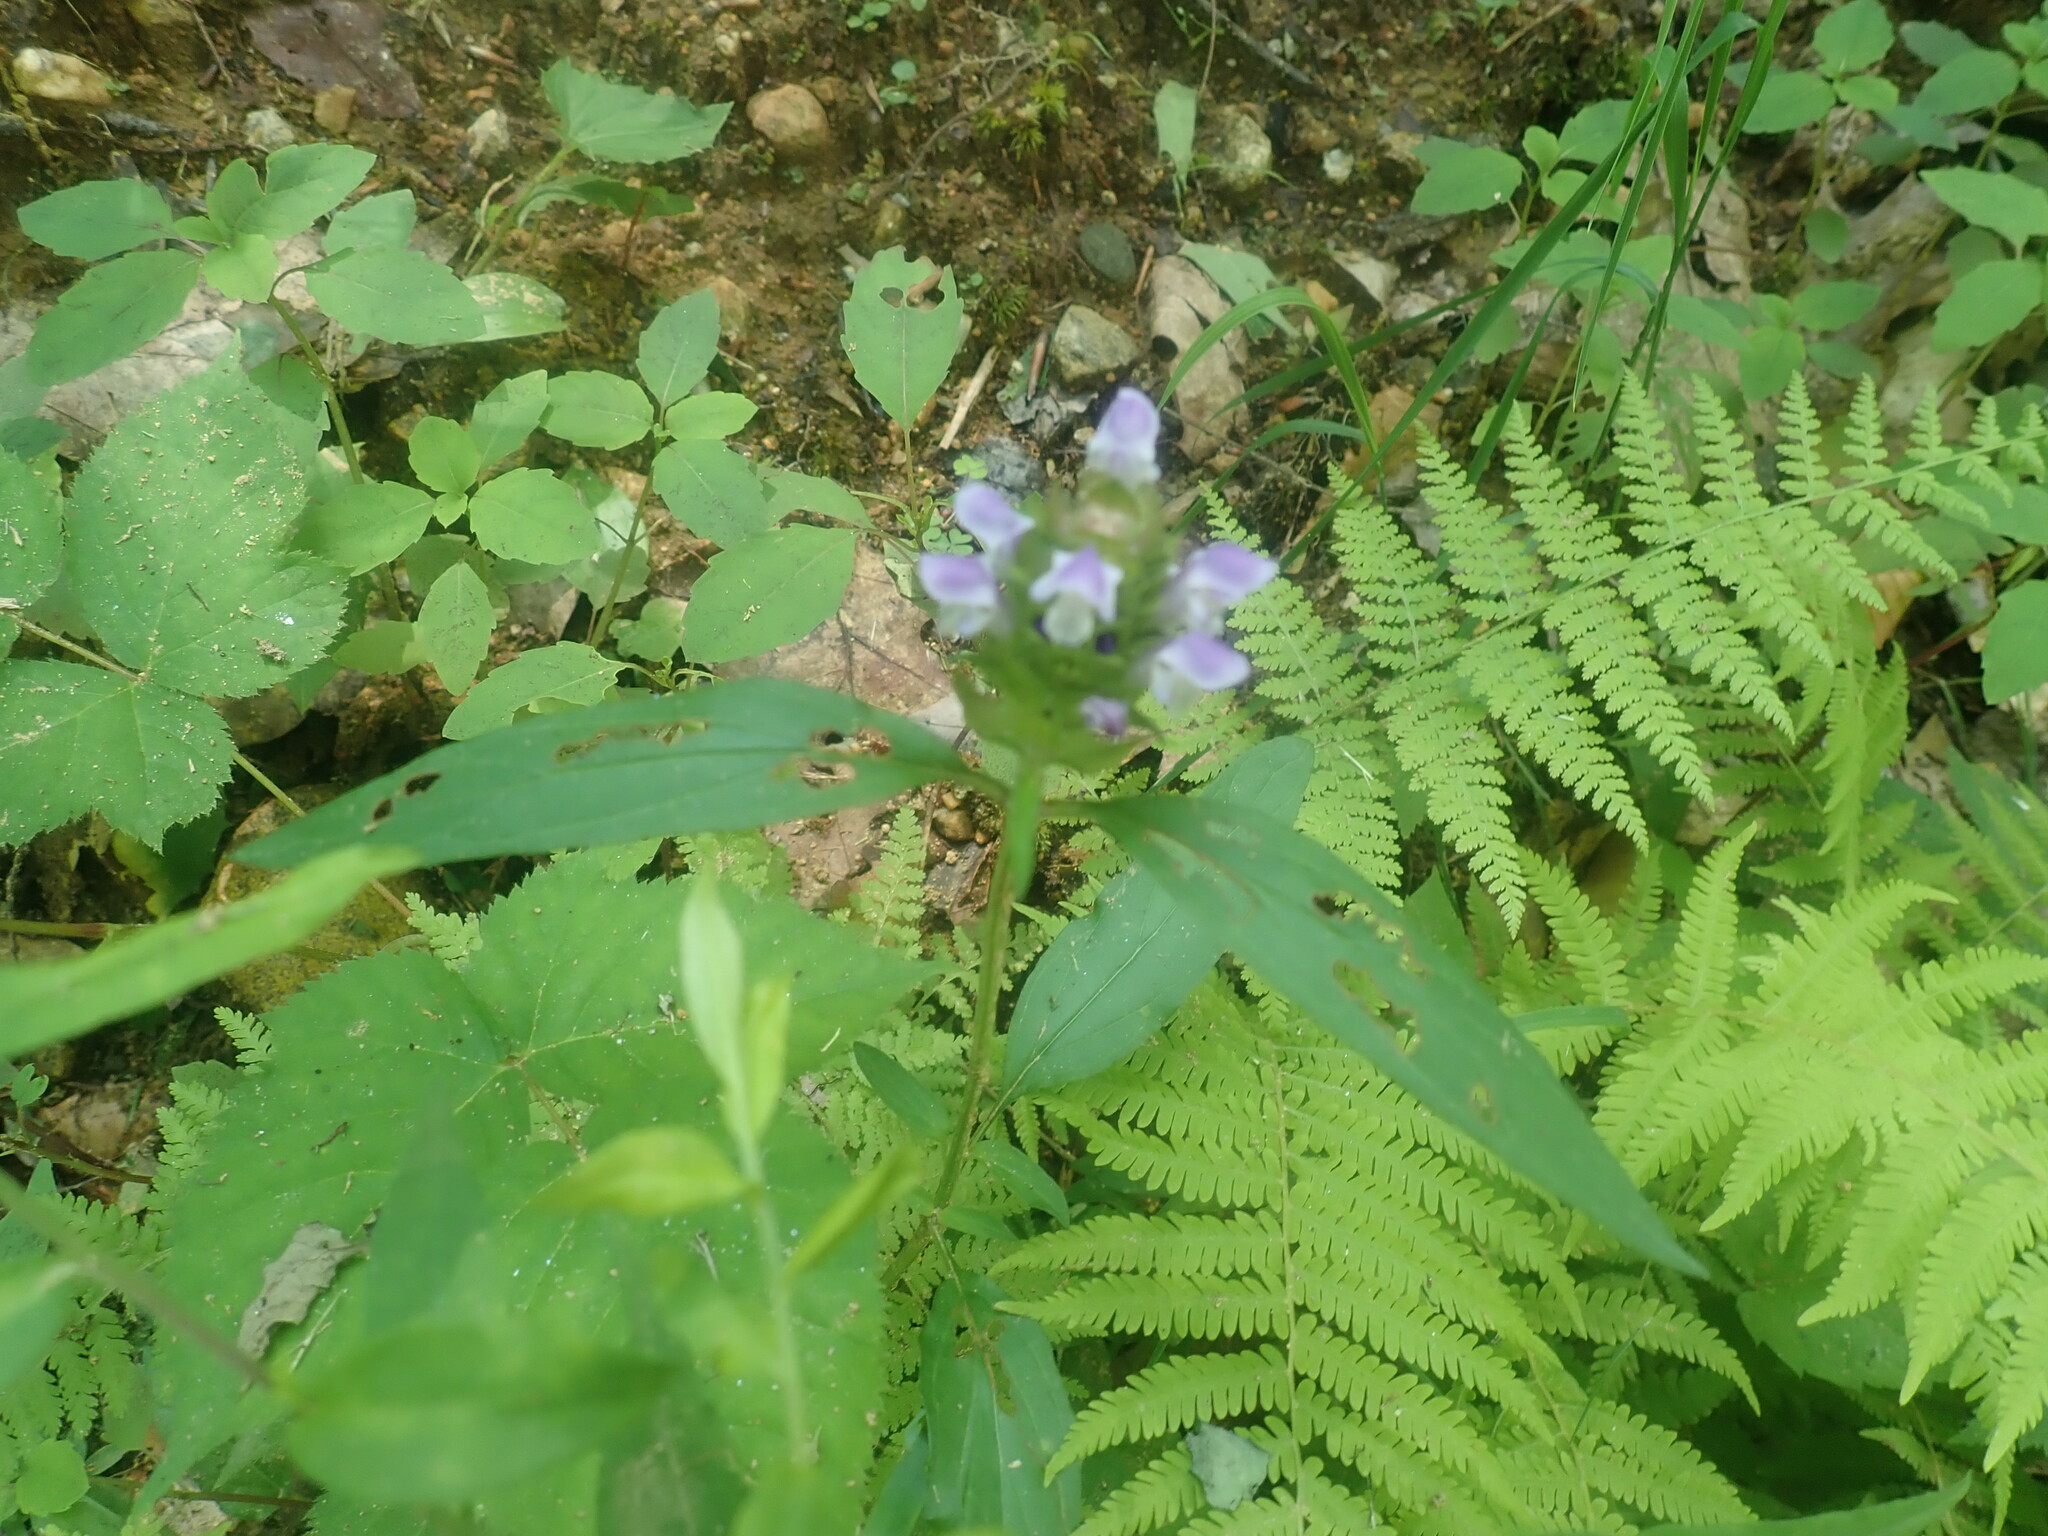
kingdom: Plantae
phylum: Tracheophyta
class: Magnoliopsida
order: Lamiales
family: Lamiaceae
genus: Prunella
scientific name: Prunella vulgaris
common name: Heal-all
